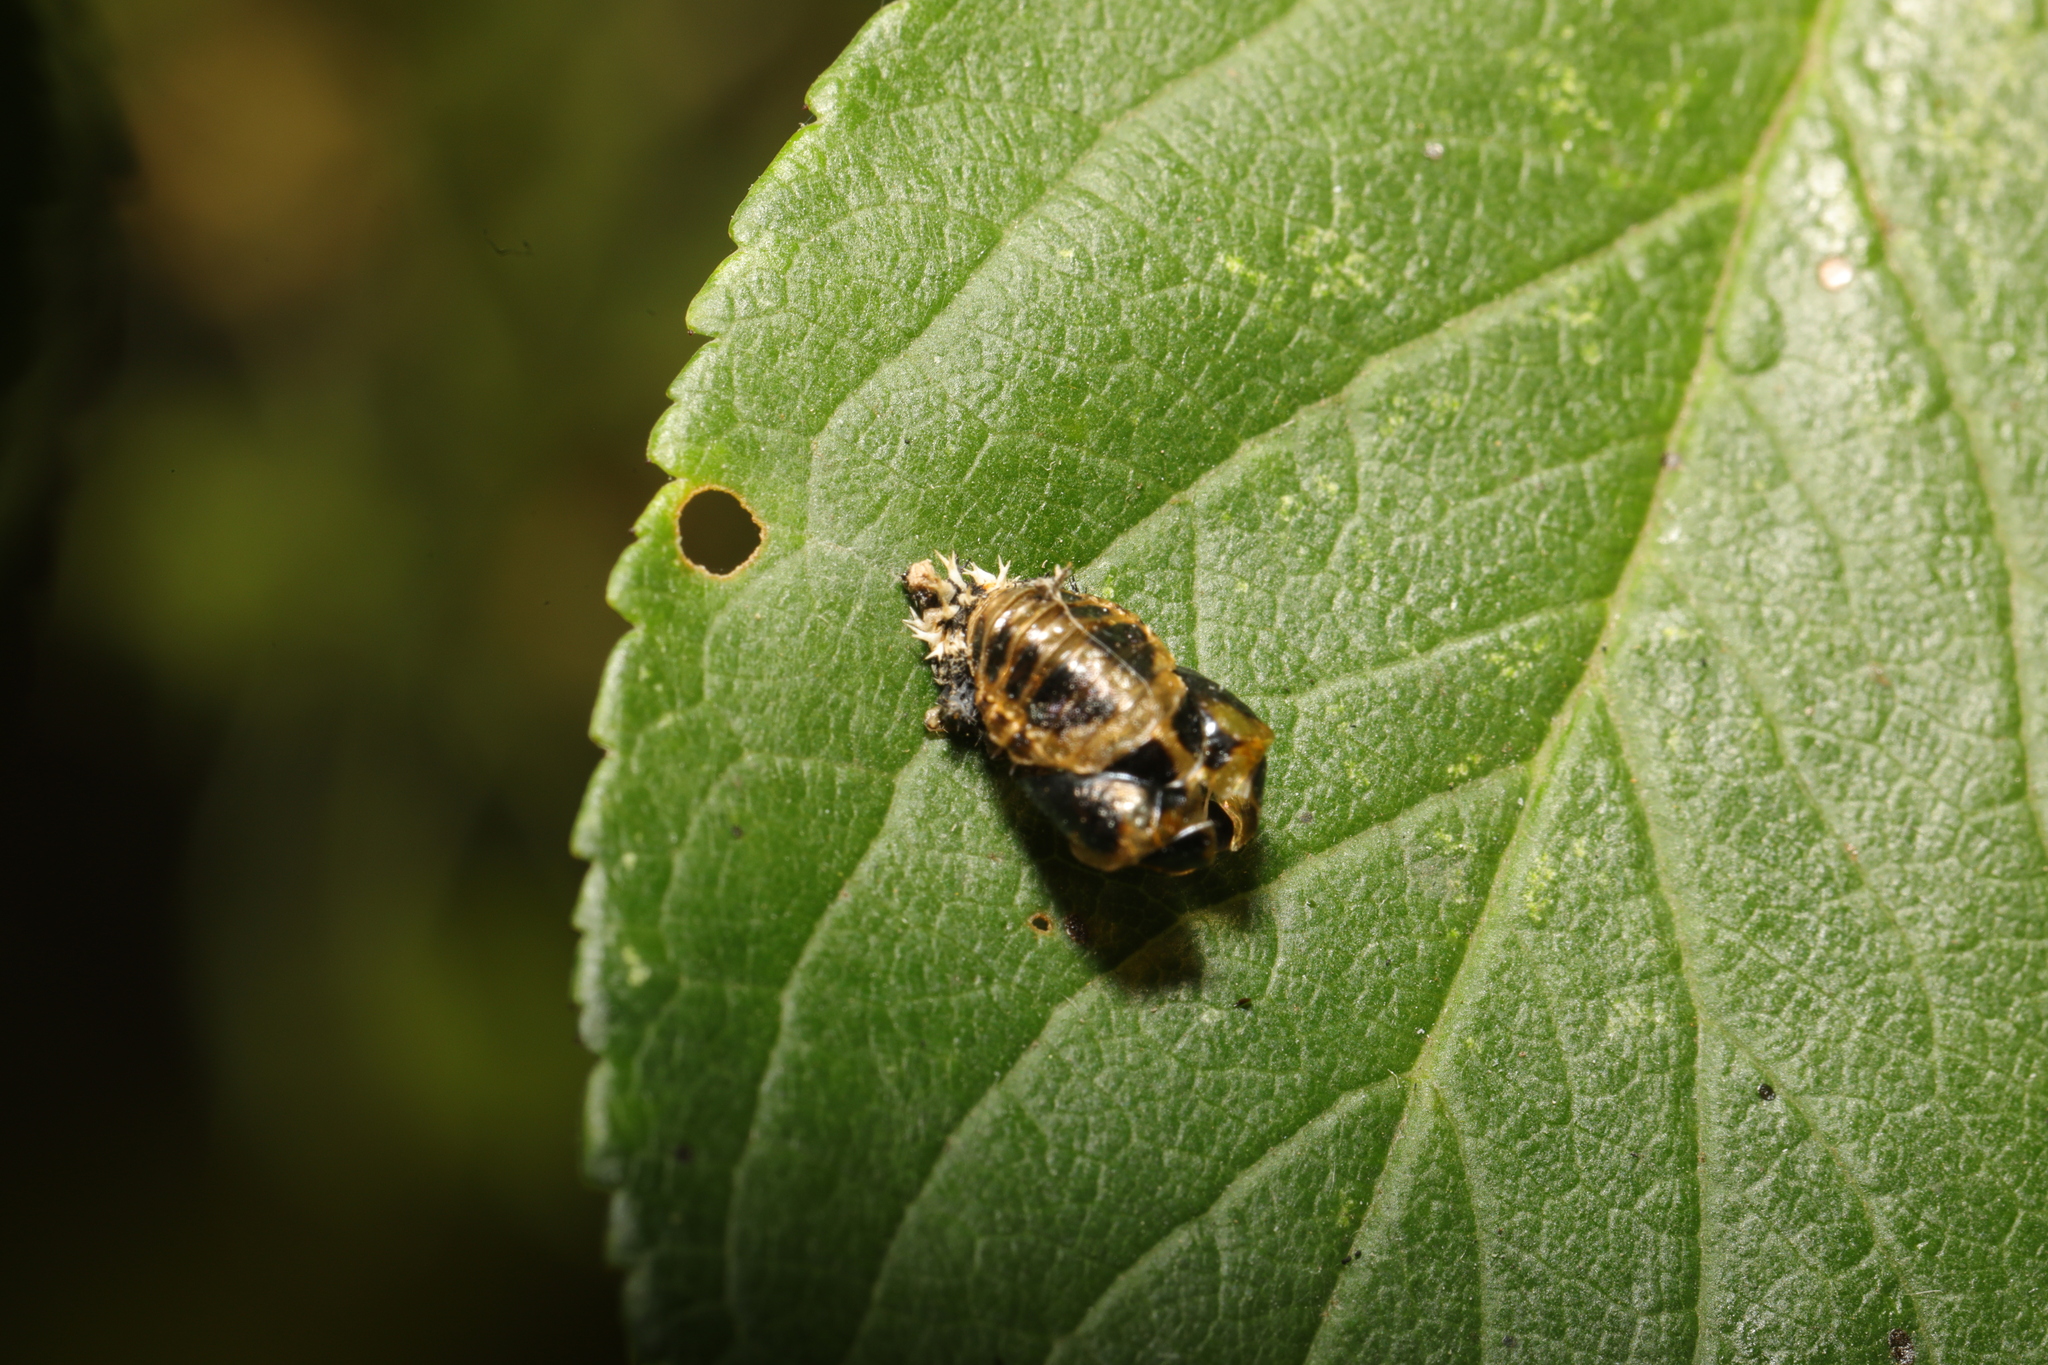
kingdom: Animalia
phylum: Arthropoda
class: Insecta
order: Coleoptera
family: Coccinellidae
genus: Harmonia
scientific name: Harmonia axyridis
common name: Harlequin ladybird
